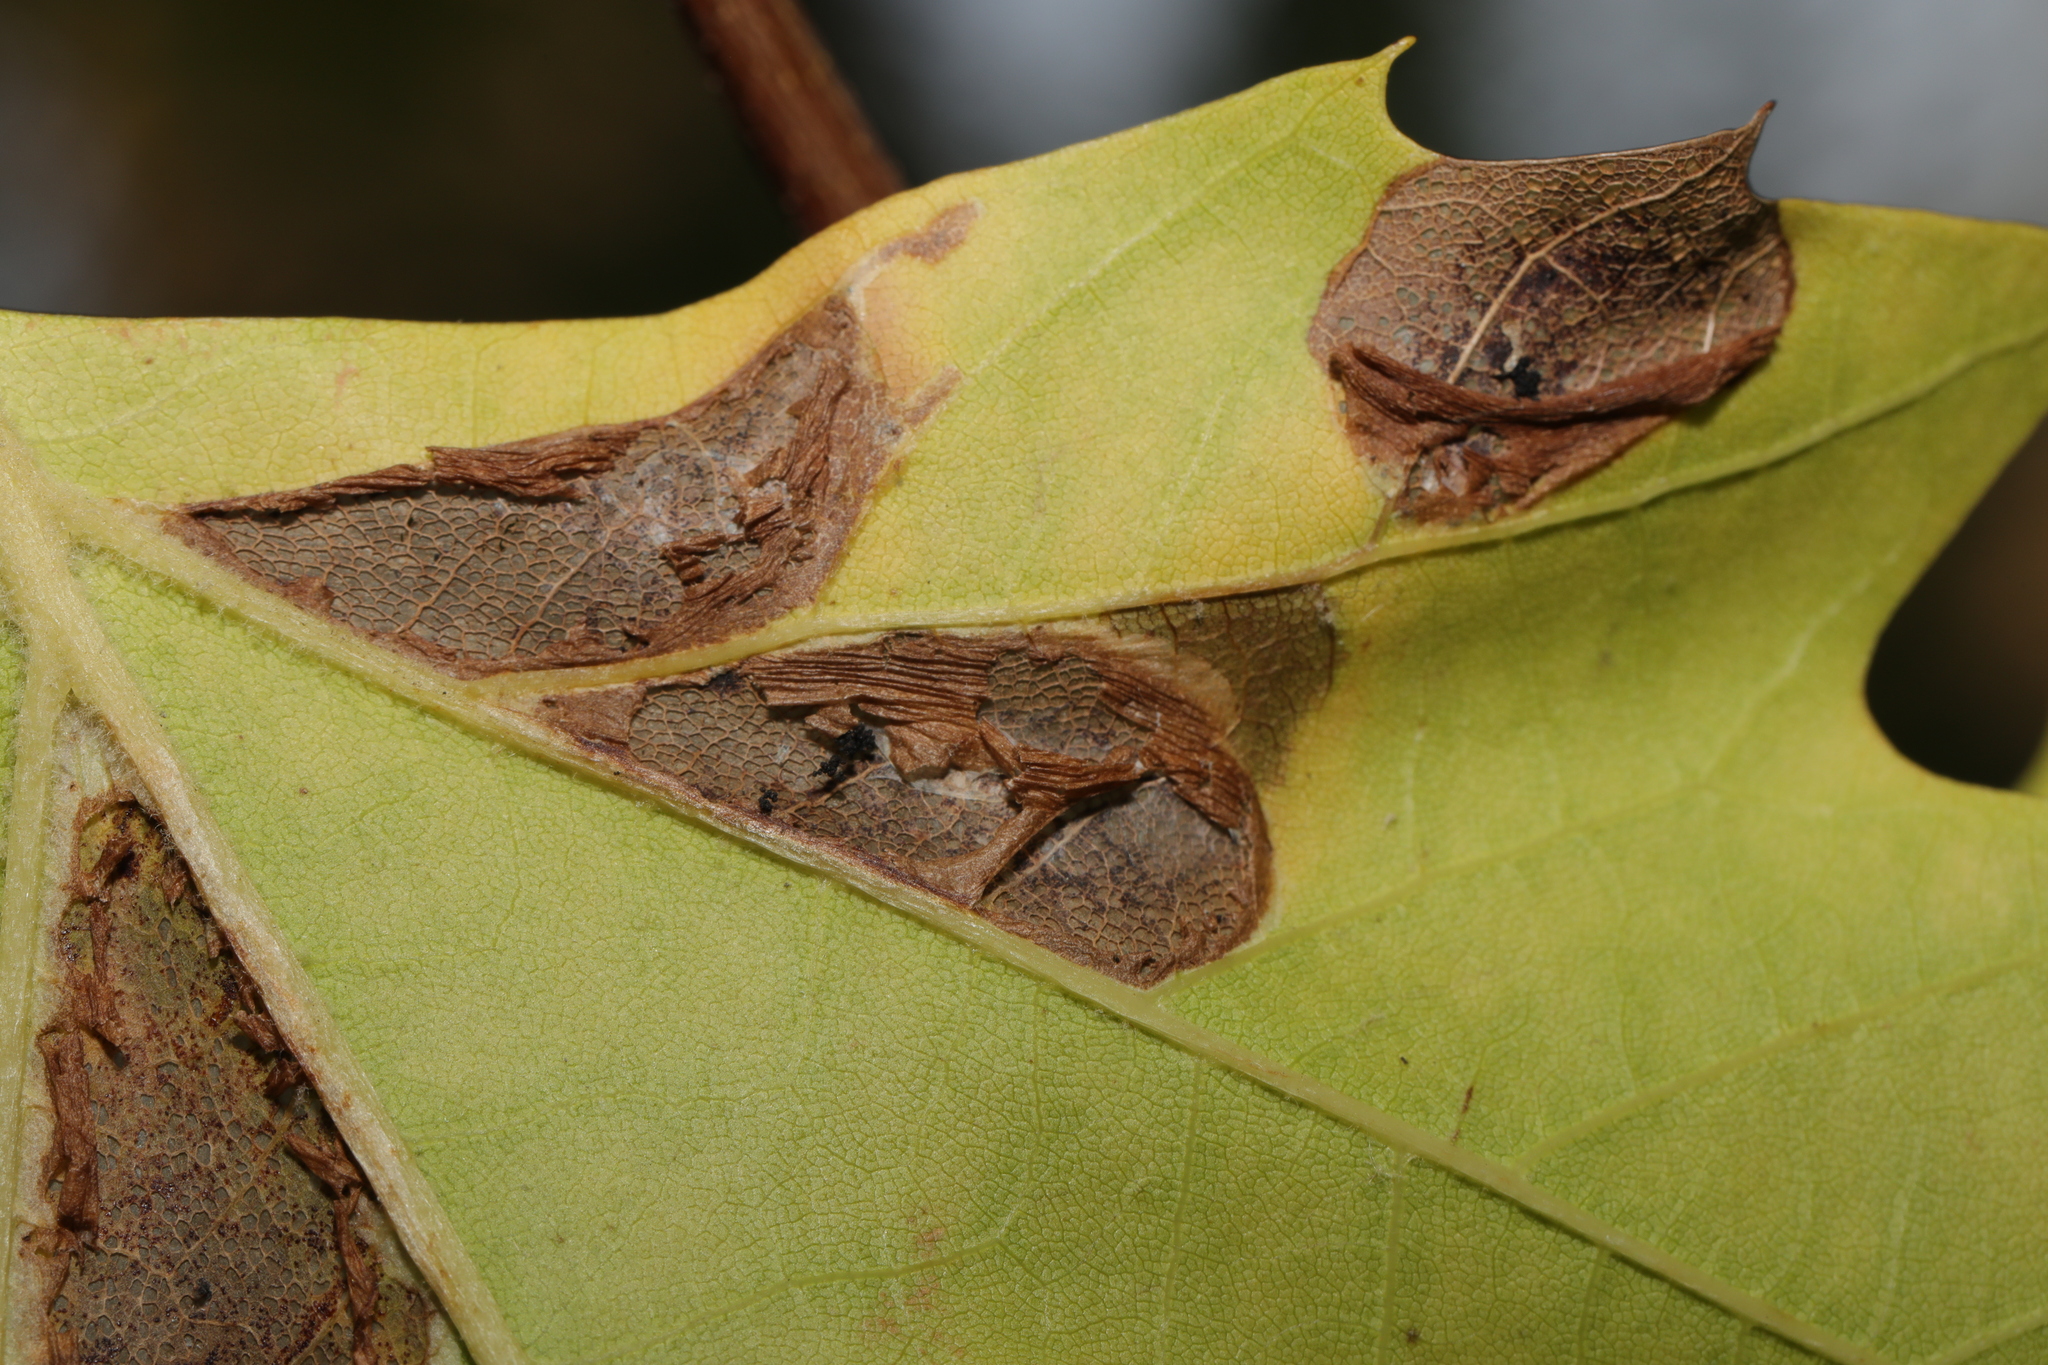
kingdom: Animalia
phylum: Arthropoda
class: Insecta
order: Lepidoptera
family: Gracillariidae
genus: Phyllonorycter
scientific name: Phyllonorycter platani
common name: London midget
